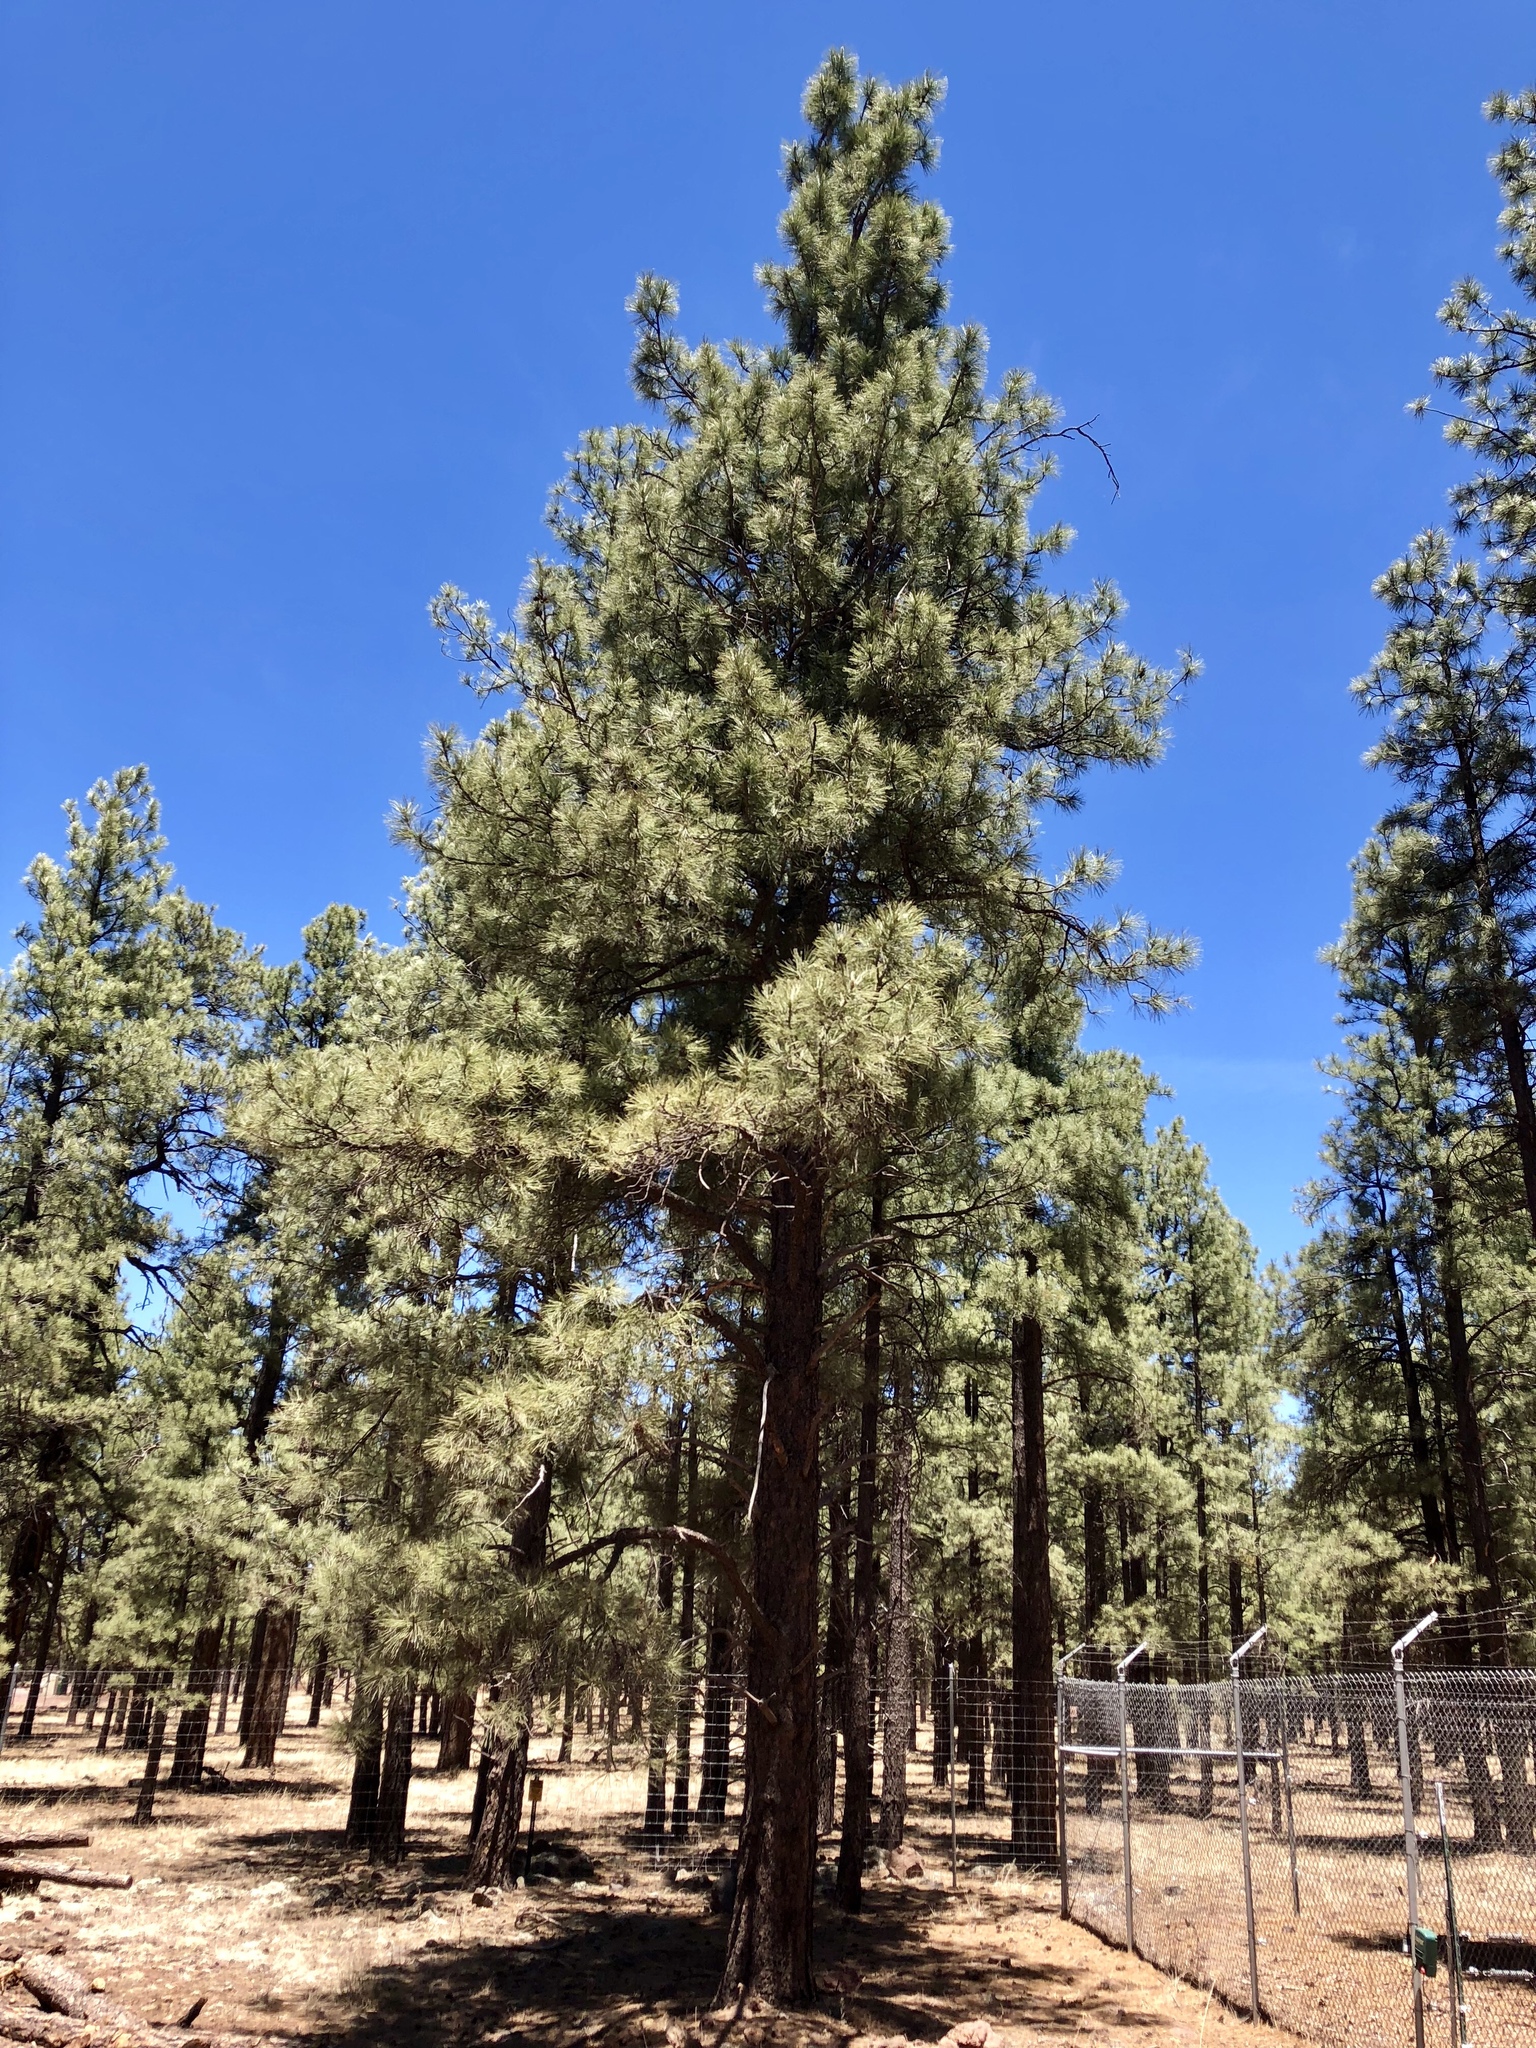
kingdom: Plantae
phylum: Tracheophyta
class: Pinopsida
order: Pinales
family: Pinaceae
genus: Pinus
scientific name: Pinus ponderosa
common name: Western yellow-pine
